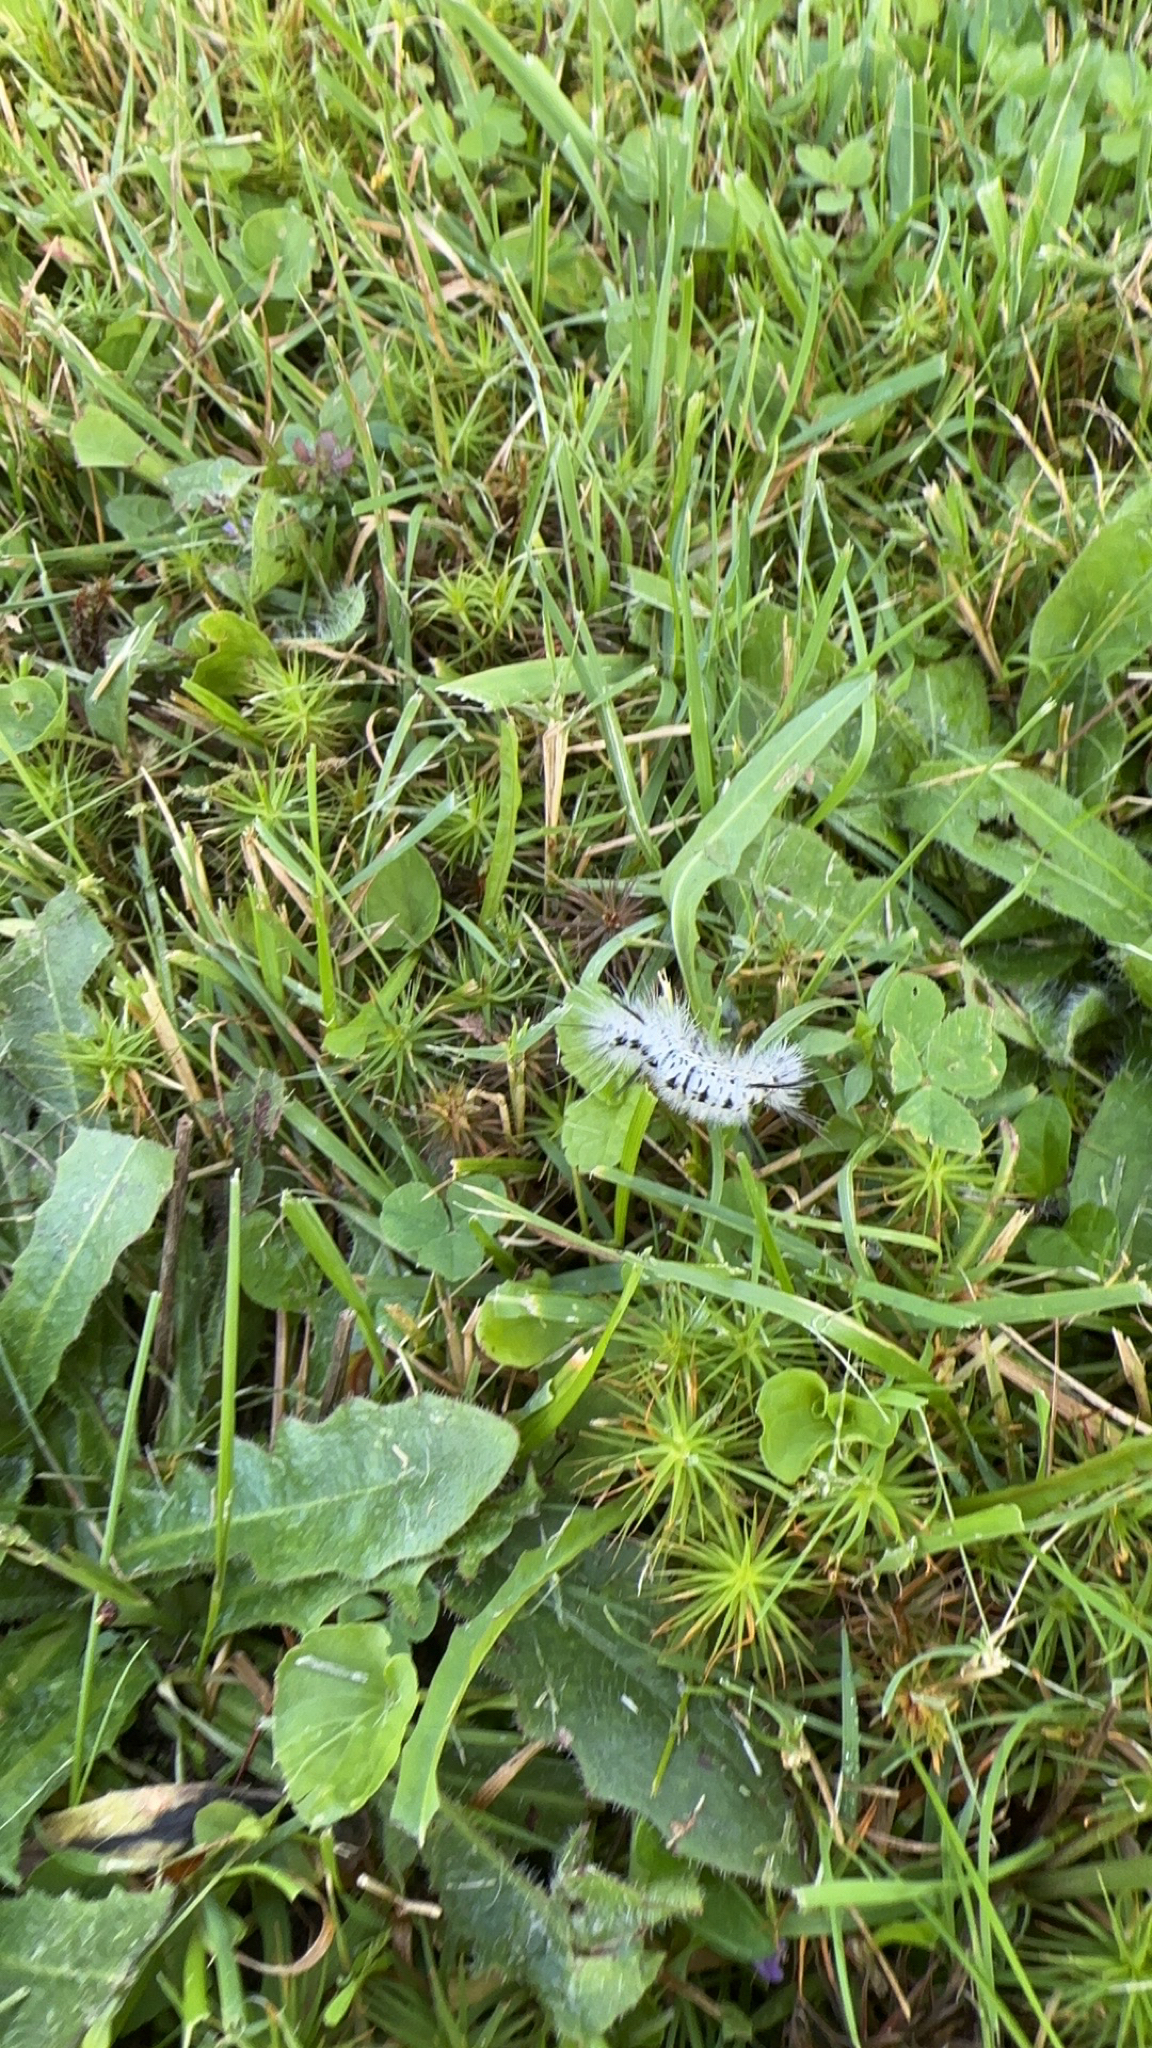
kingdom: Animalia
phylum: Arthropoda
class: Insecta
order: Lepidoptera
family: Erebidae
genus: Lophocampa
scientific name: Lophocampa caryae
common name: Hickory tussock moth
